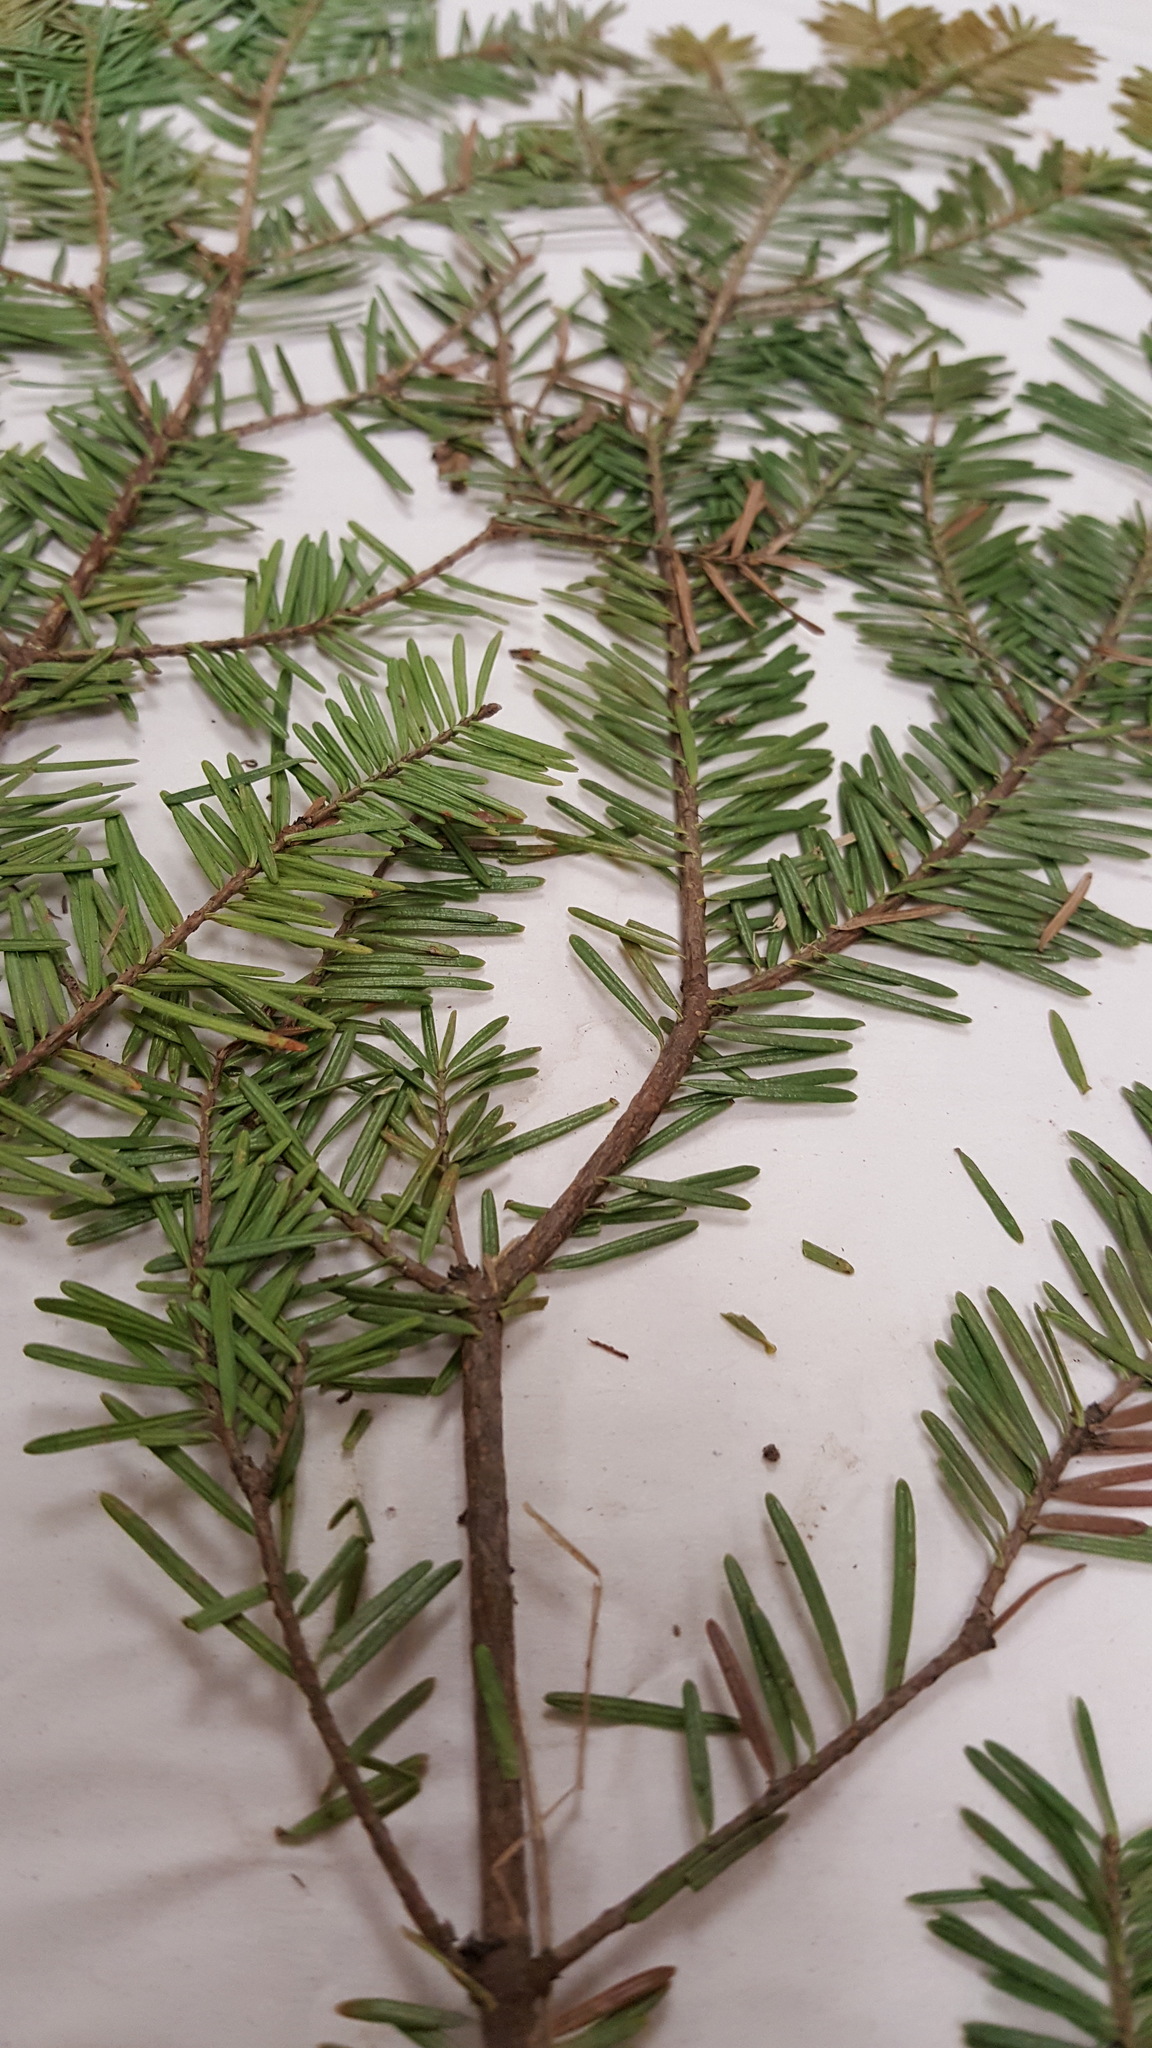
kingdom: Plantae
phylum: Tracheophyta
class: Pinopsida
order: Pinales
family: Pinaceae
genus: Abies
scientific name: Abies balsamea
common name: Balsam fir
